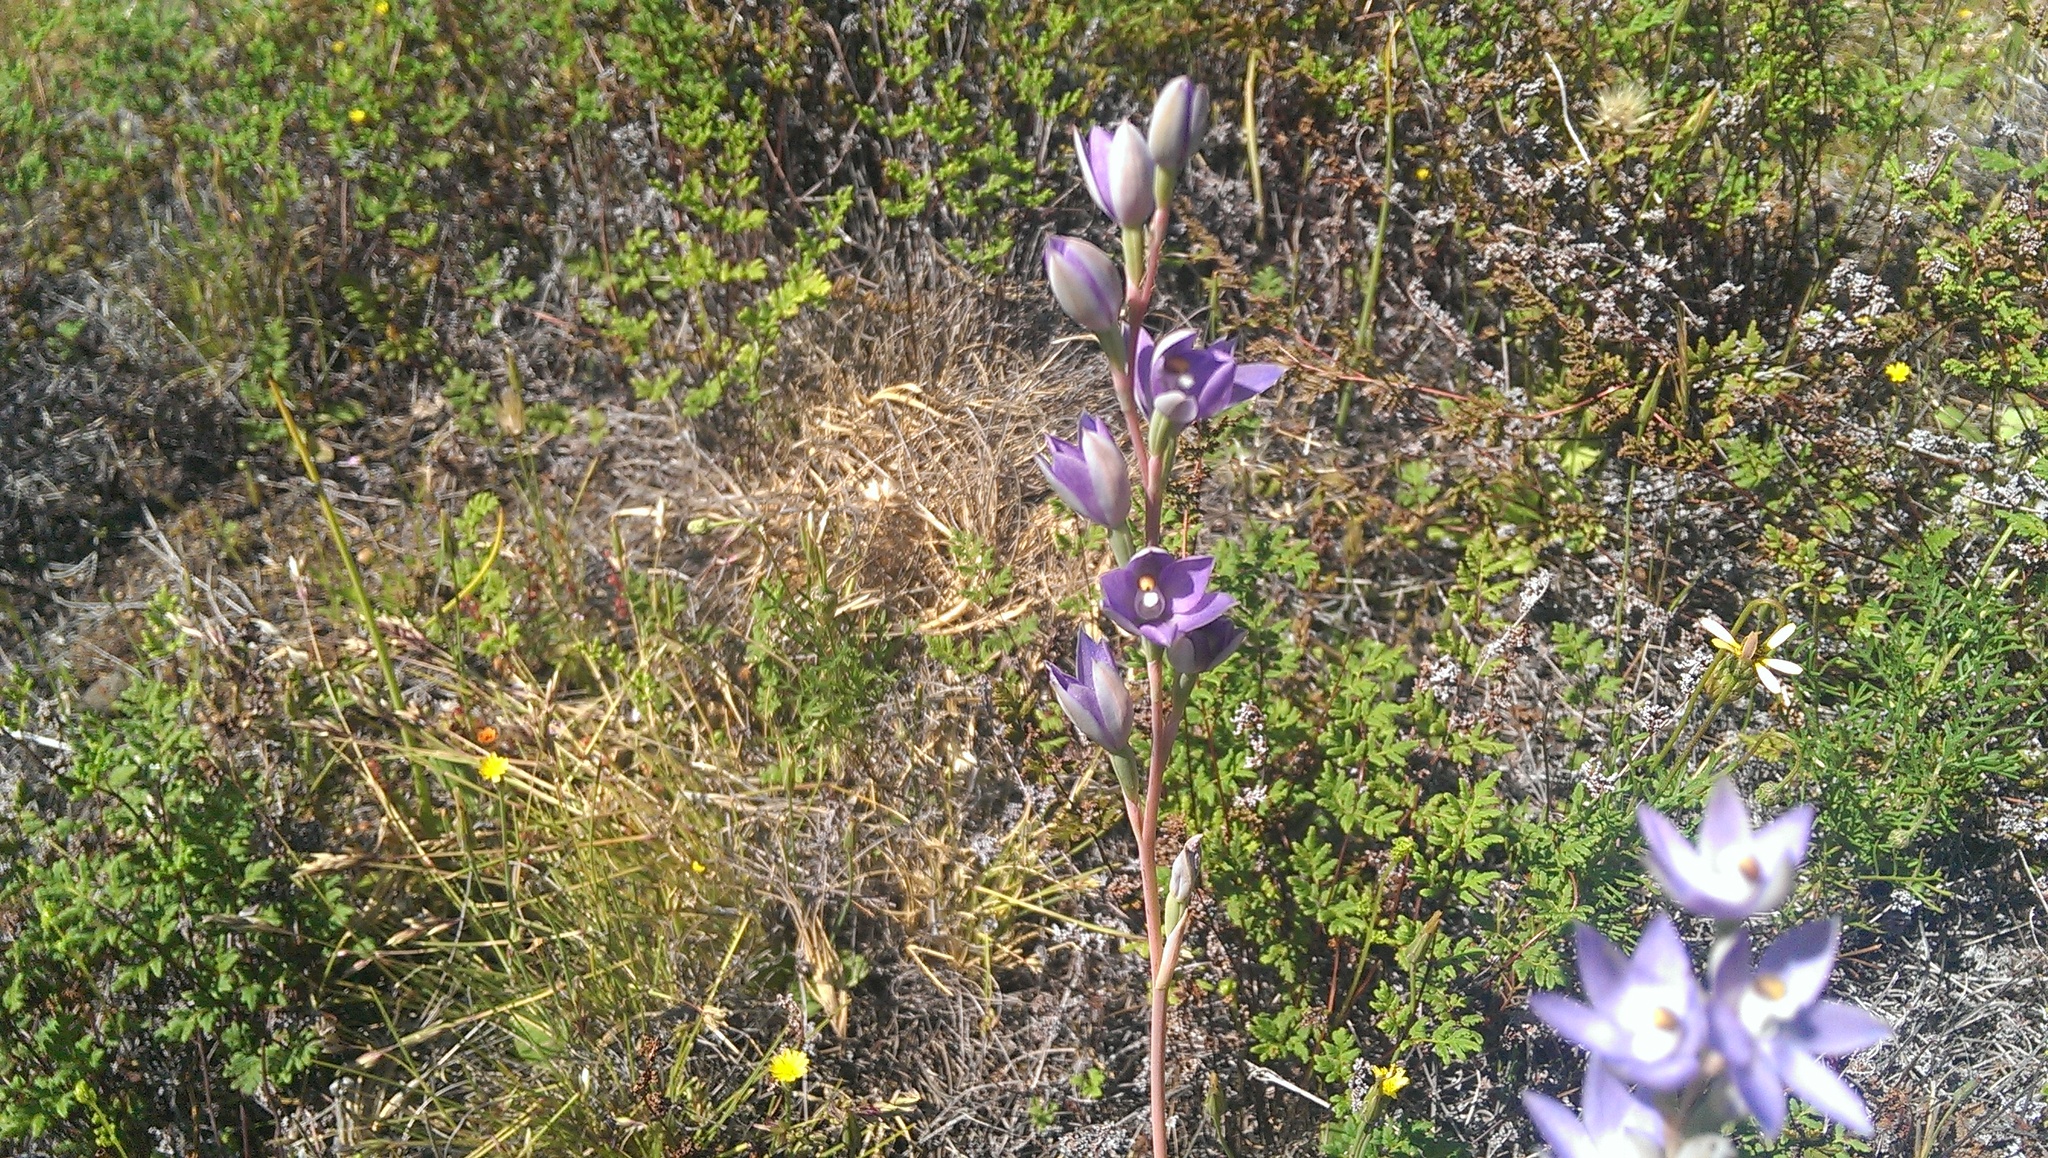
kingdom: Plantae
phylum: Tracheophyta
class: Liliopsida
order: Asparagales
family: Orchidaceae
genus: Thelymitra
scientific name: Thelymitra petrophila
